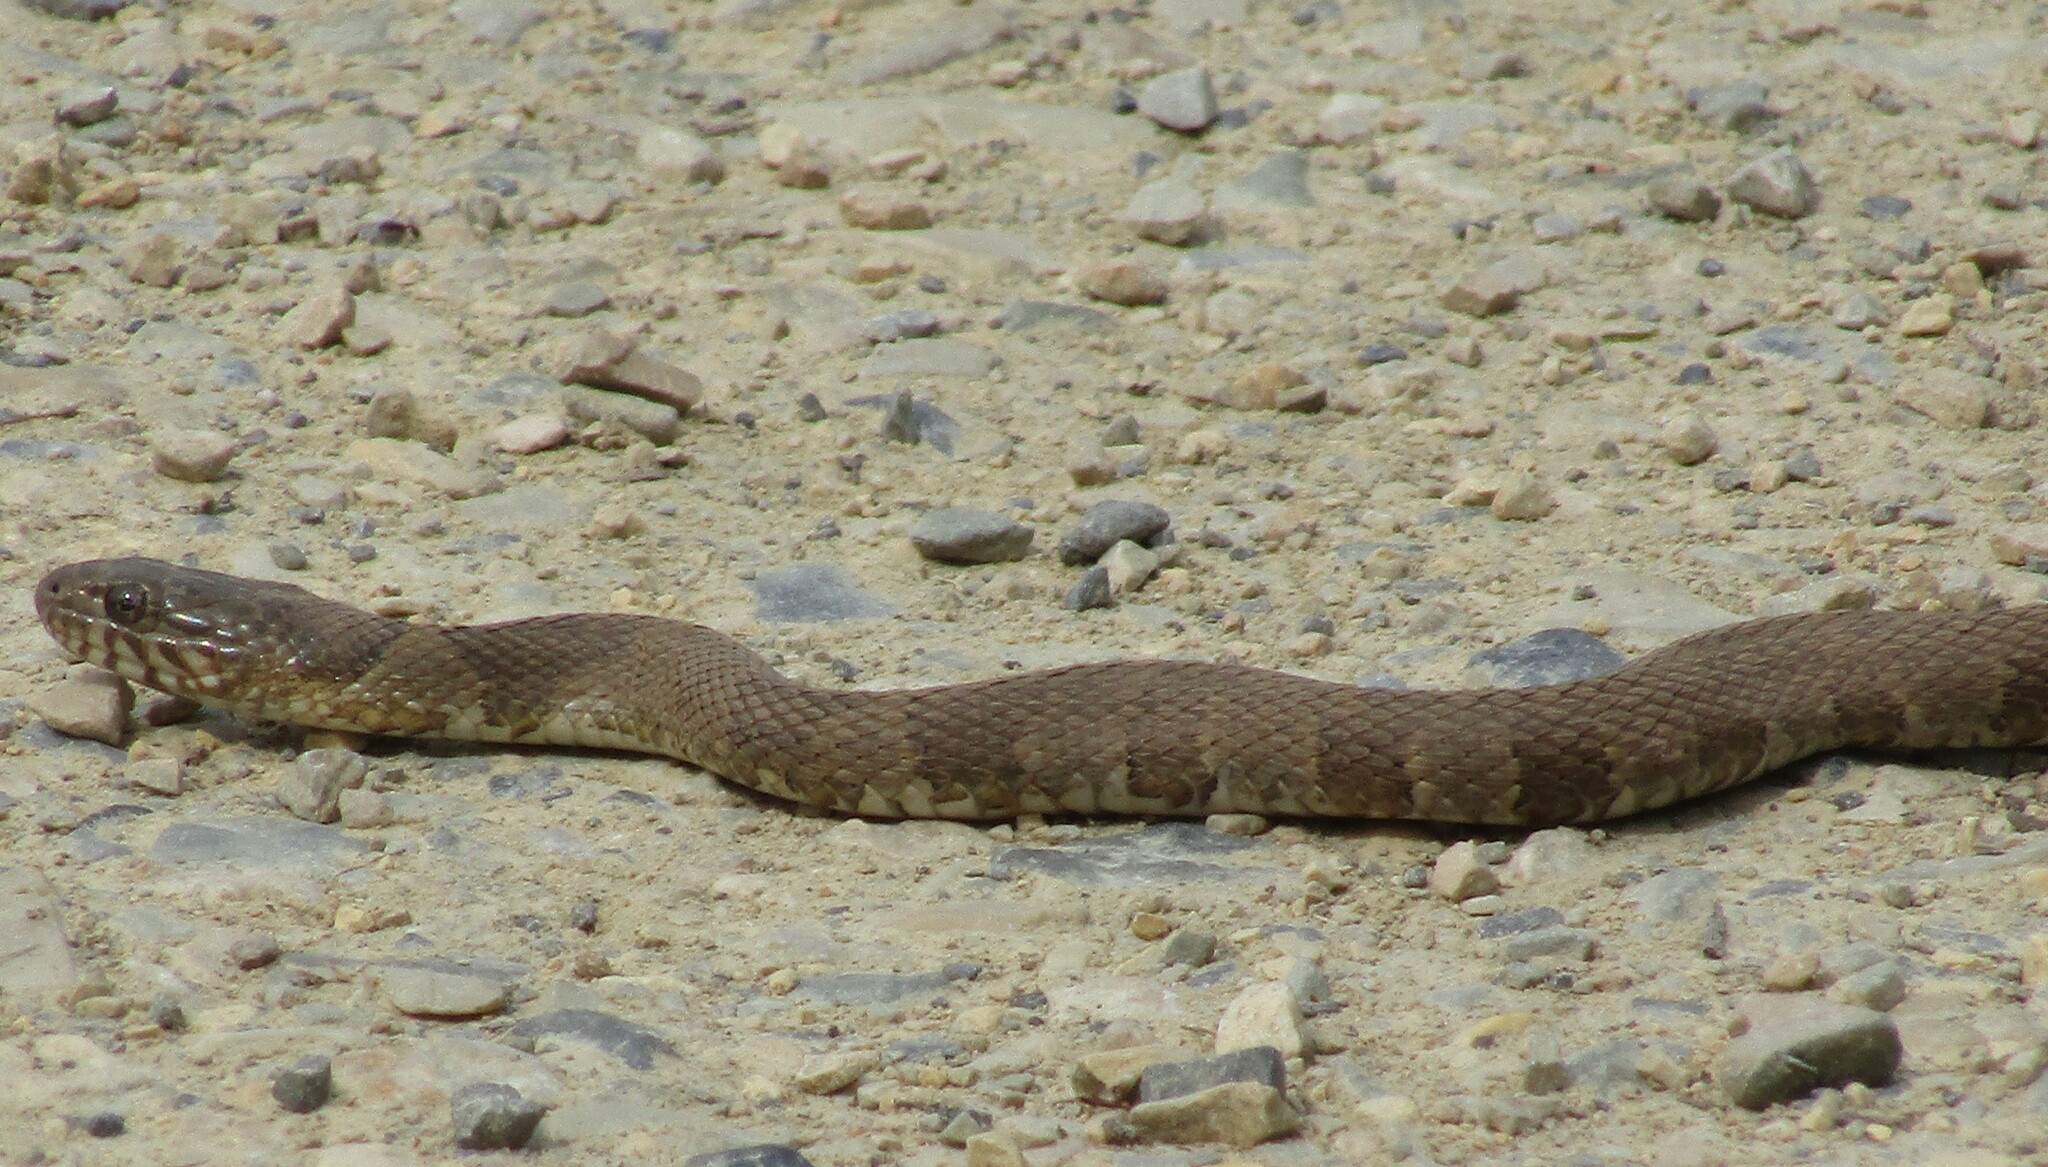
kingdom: Animalia
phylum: Chordata
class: Squamata
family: Colubridae
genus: Nerodia
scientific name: Nerodia sipedon
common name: Northern water snake
